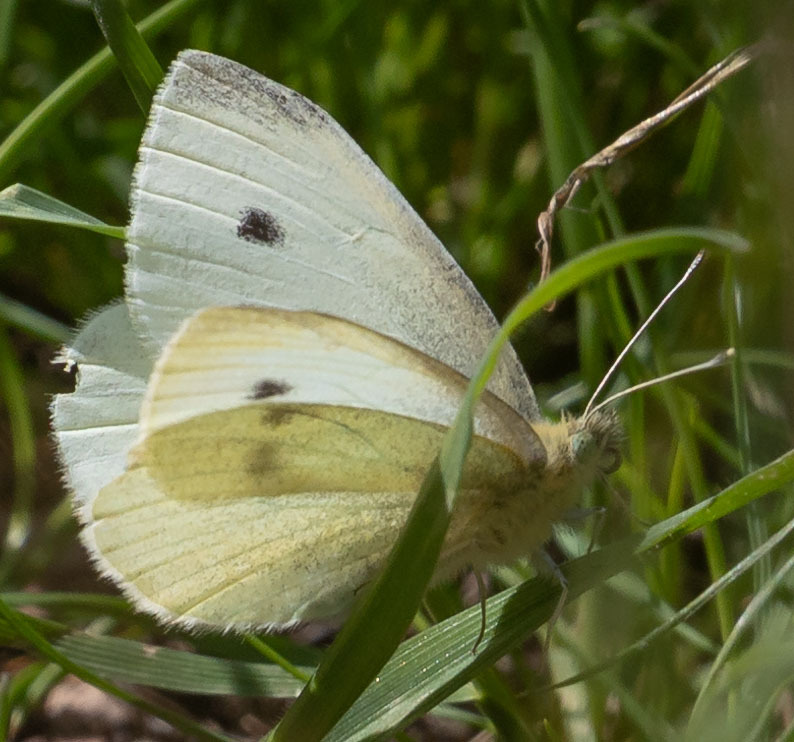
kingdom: Animalia
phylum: Arthropoda
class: Insecta
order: Lepidoptera
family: Pieridae
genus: Pieris
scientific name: Pieris rapae
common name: Small white
